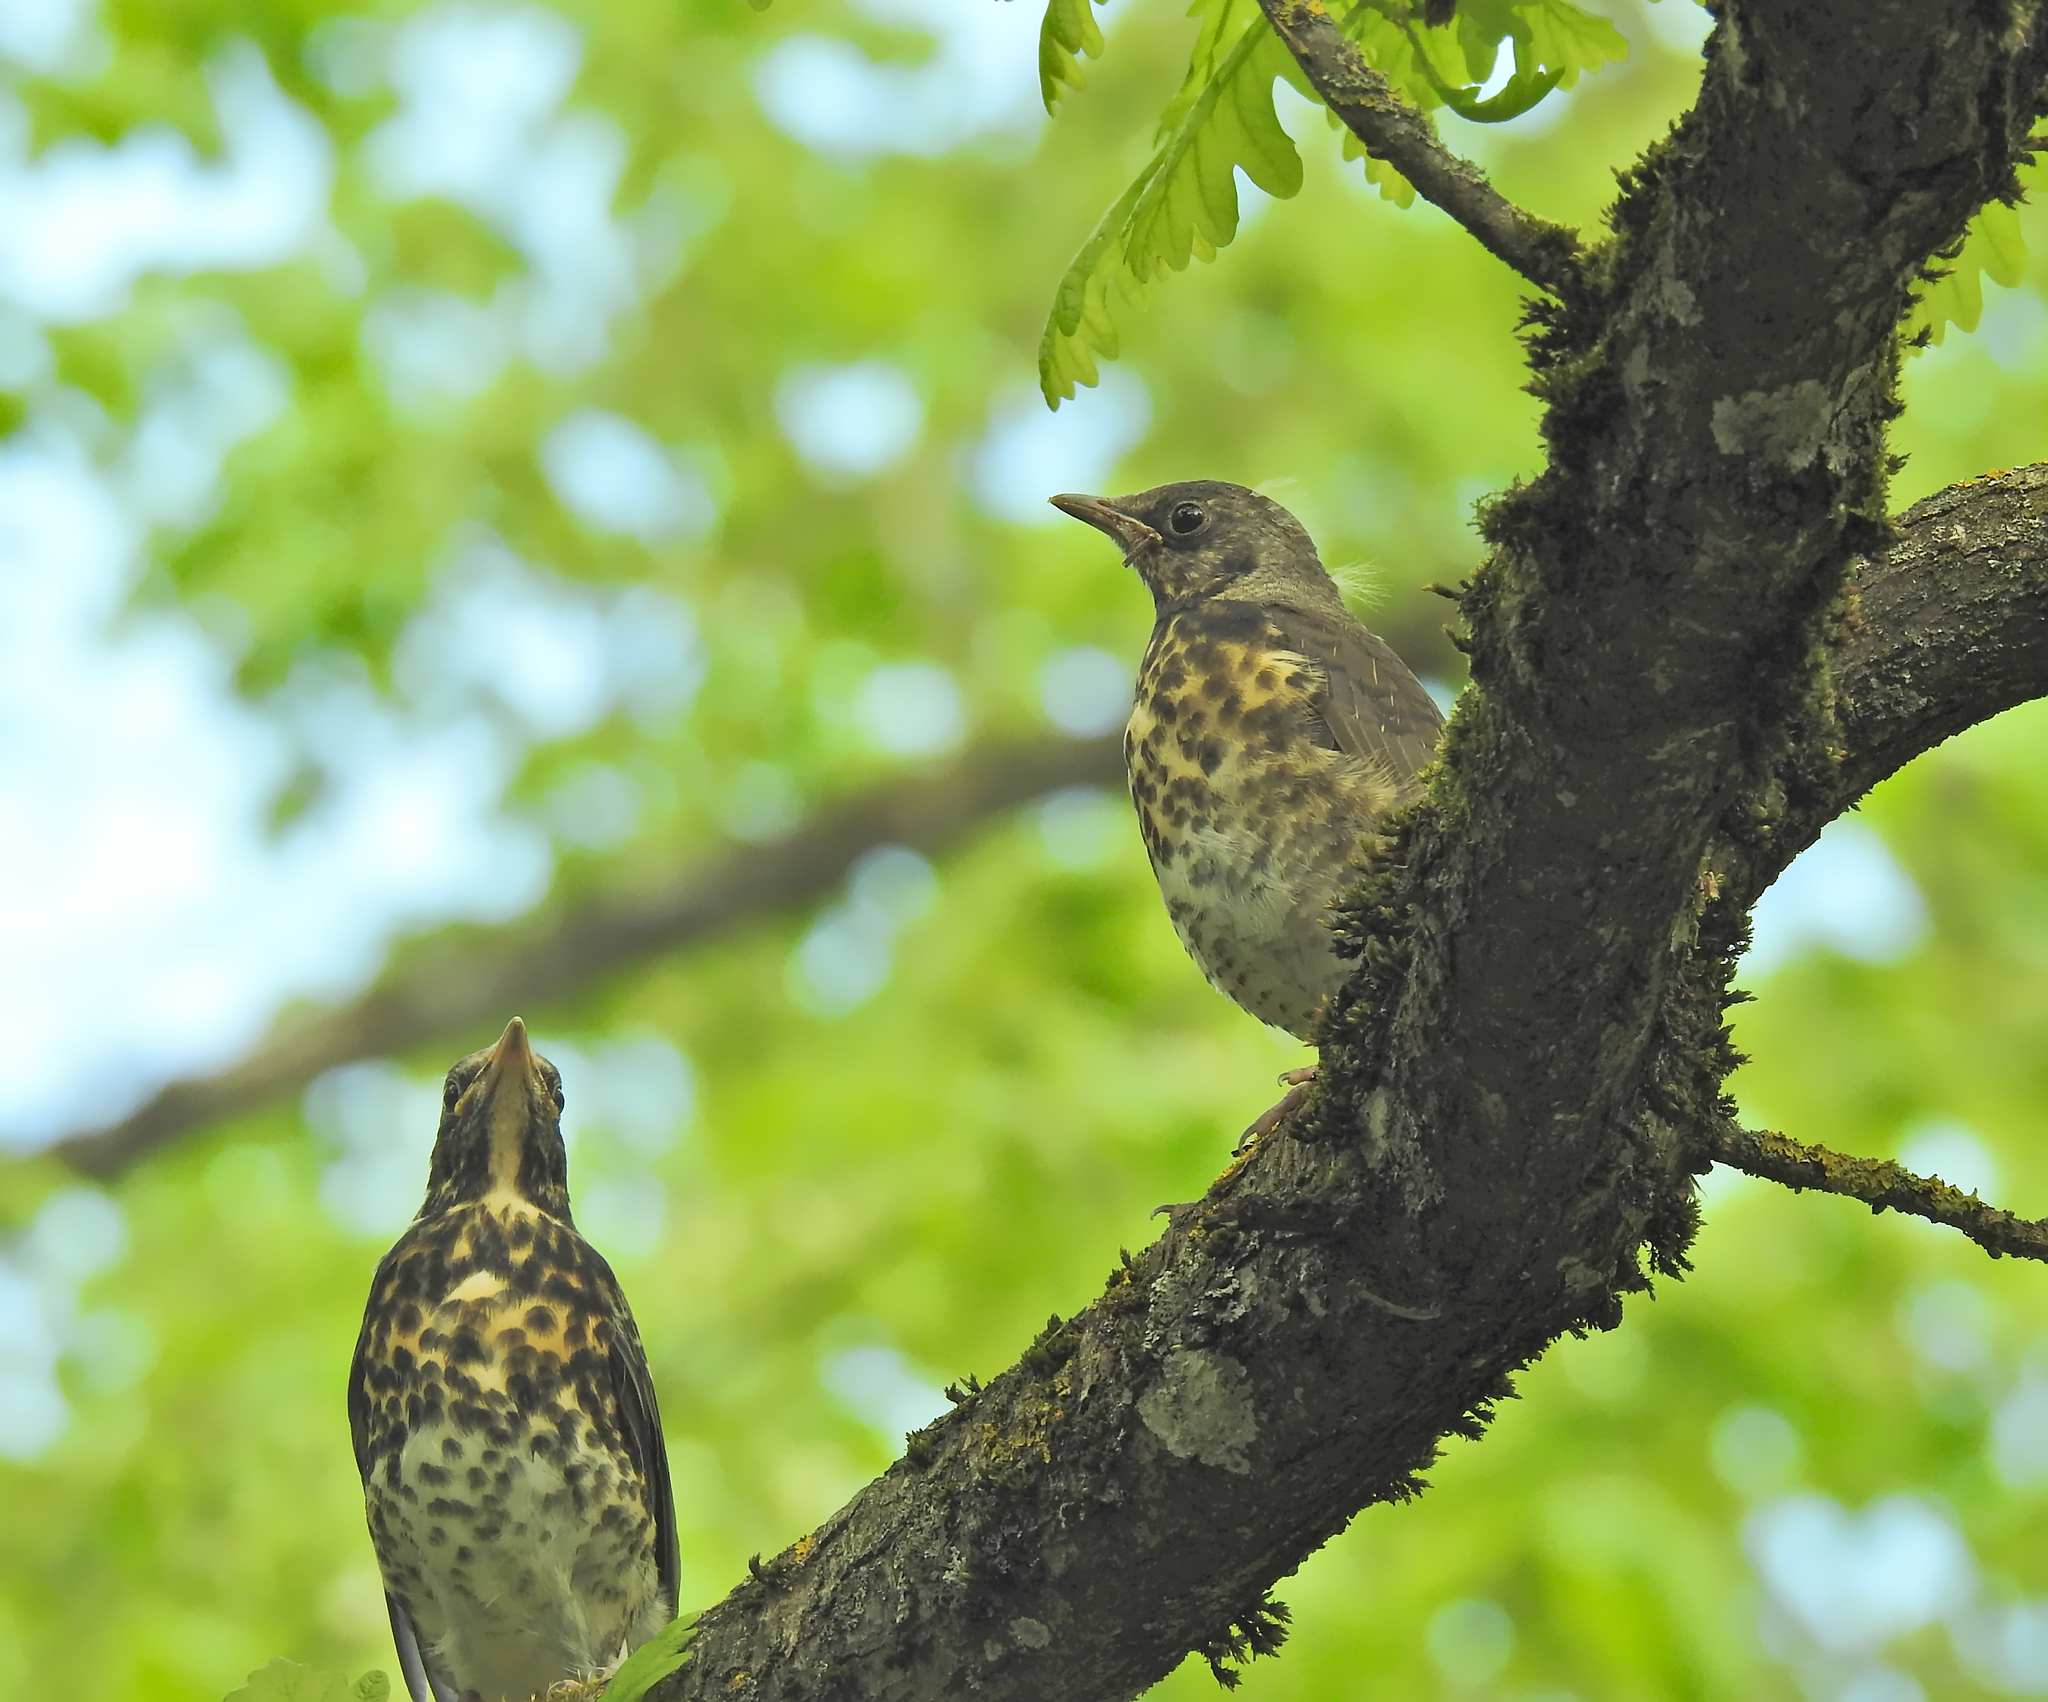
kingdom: Animalia
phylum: Chordata
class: Aves
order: Passeriformes
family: Turdidae
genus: Turdus
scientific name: Turdus pilaris
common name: Fieldfare
